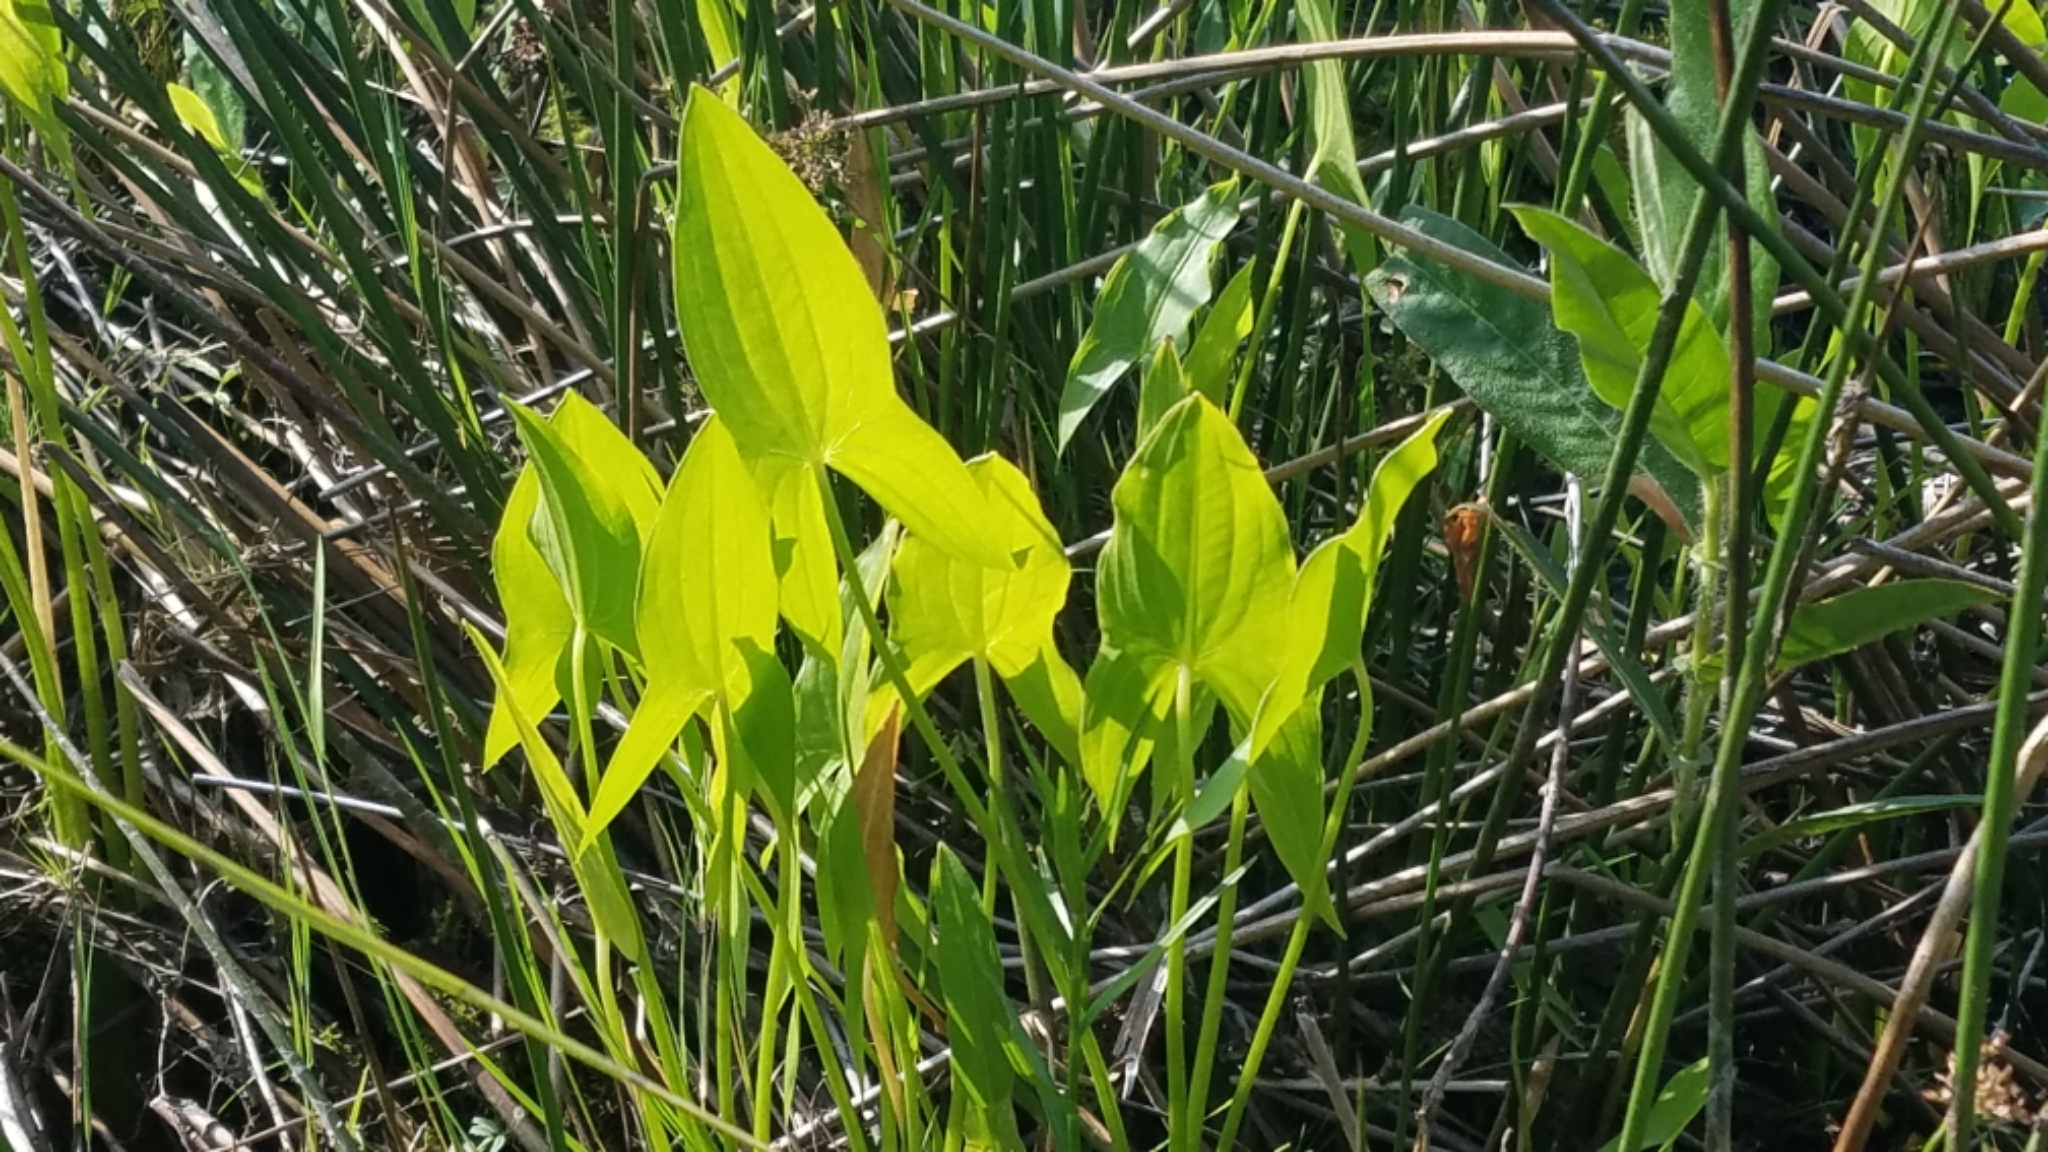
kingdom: Plantae
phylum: Tracheophyta
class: Liliopsida
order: Alismatales
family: Alismataceae
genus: Sagittaria
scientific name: Sagittaria cuneata
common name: Northern arrowhead
